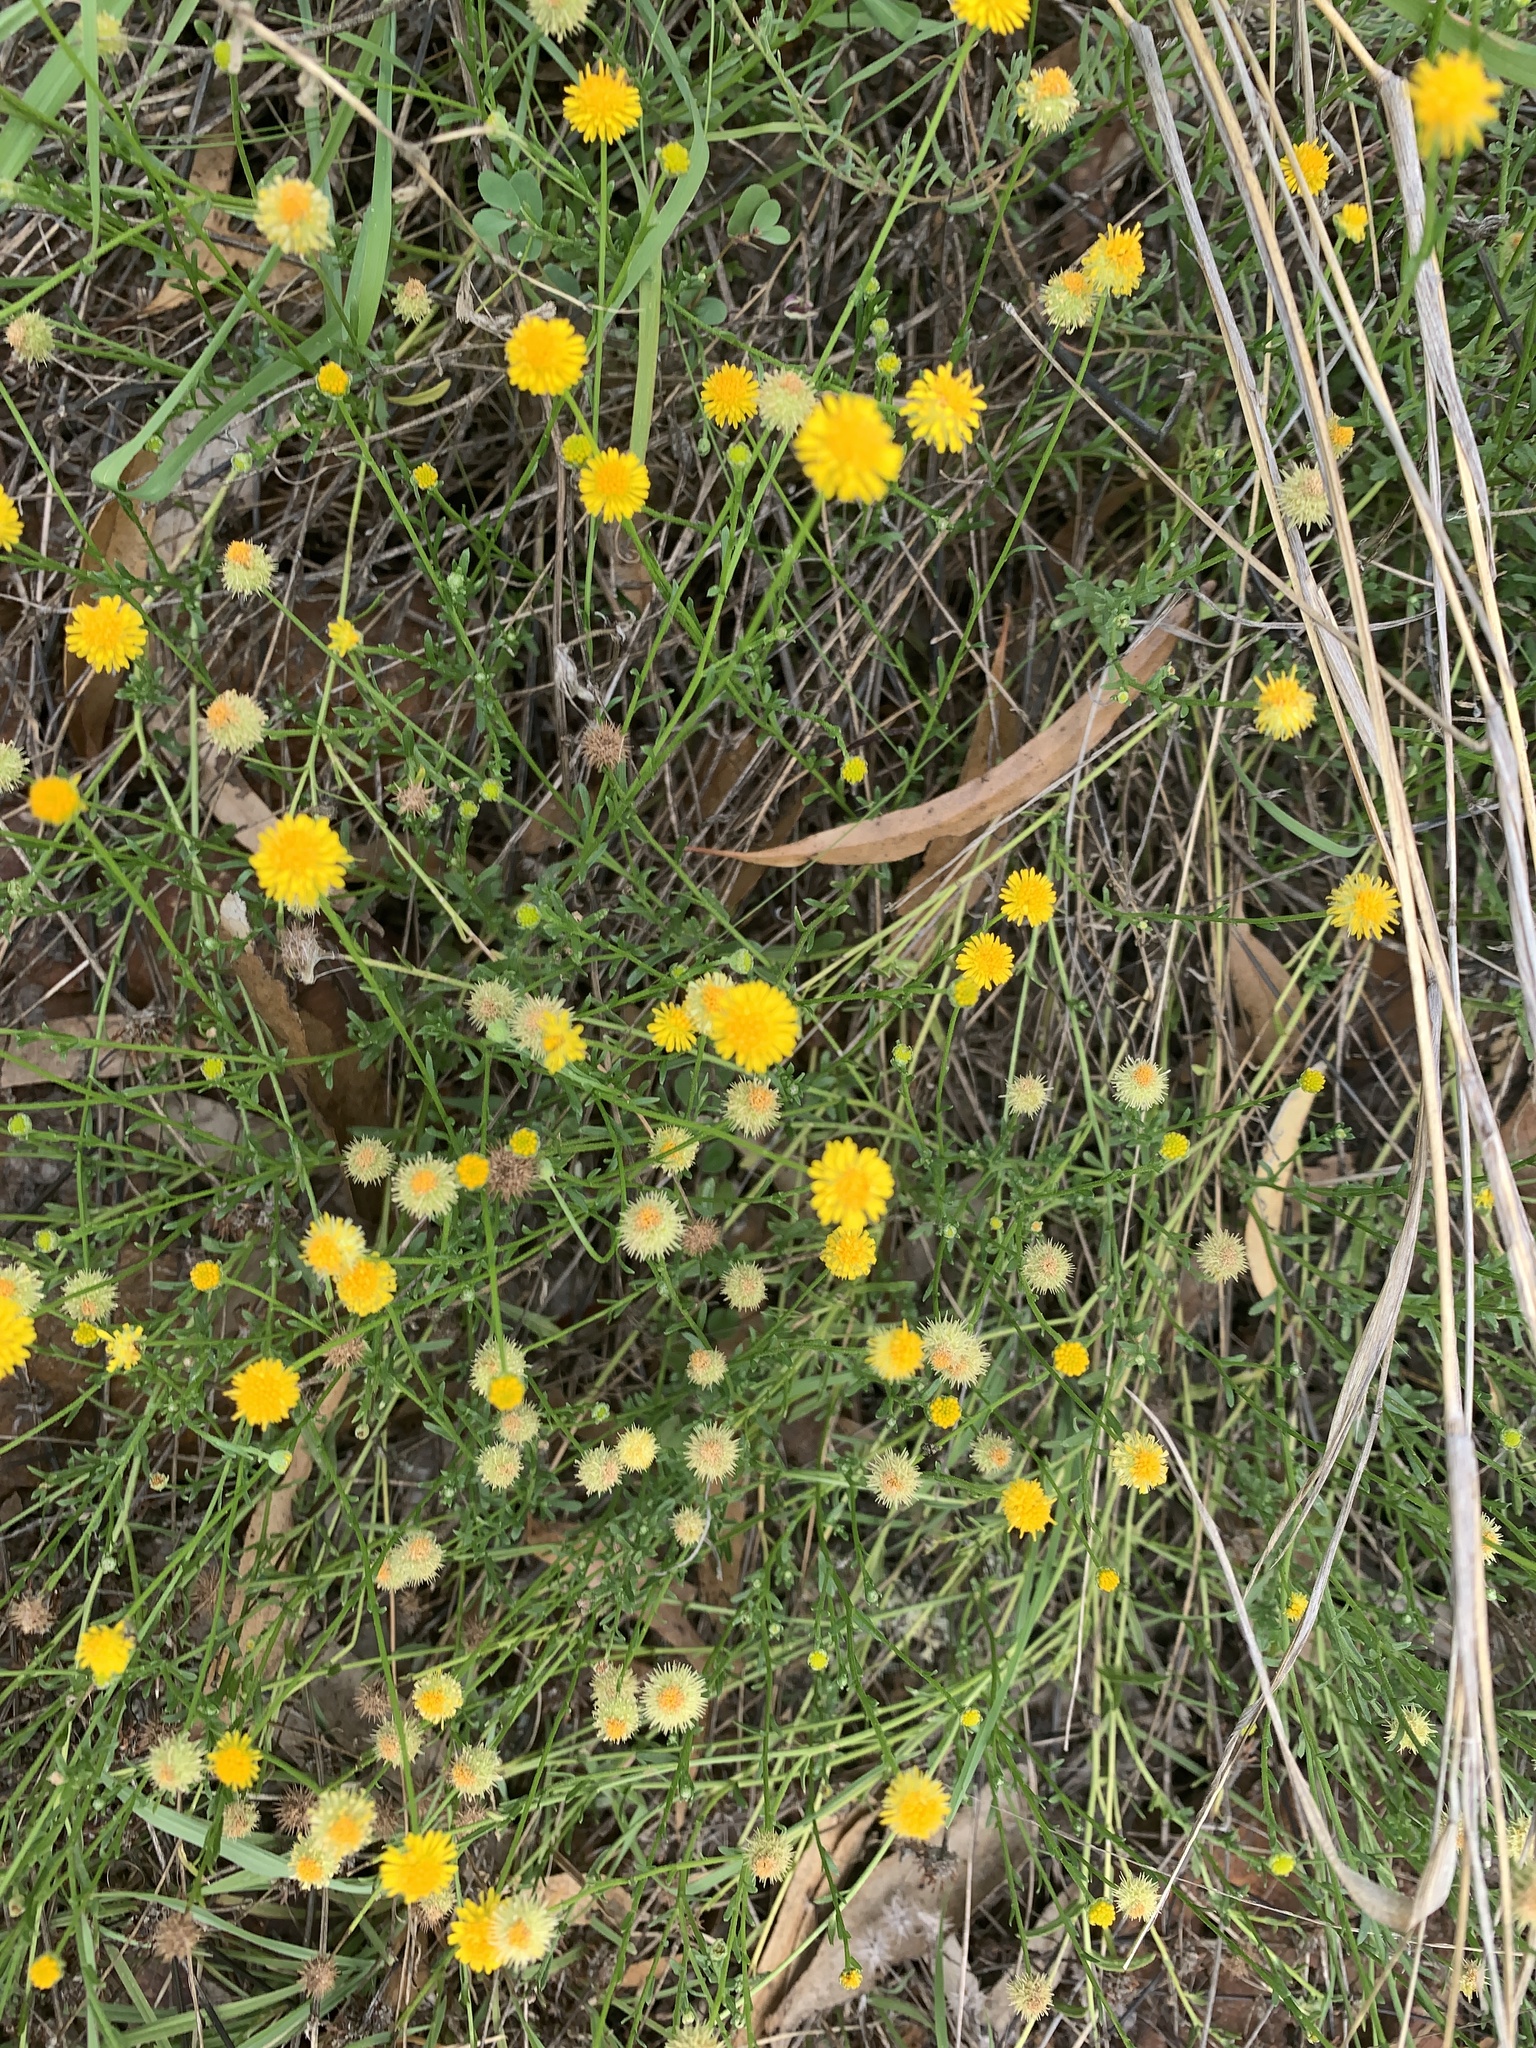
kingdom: Plantae
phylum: Tracheophyta
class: Magnoliopsida
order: Asterales
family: Asteraceae
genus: Calotis
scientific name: Calotis lappulacea
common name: Bur daisy
